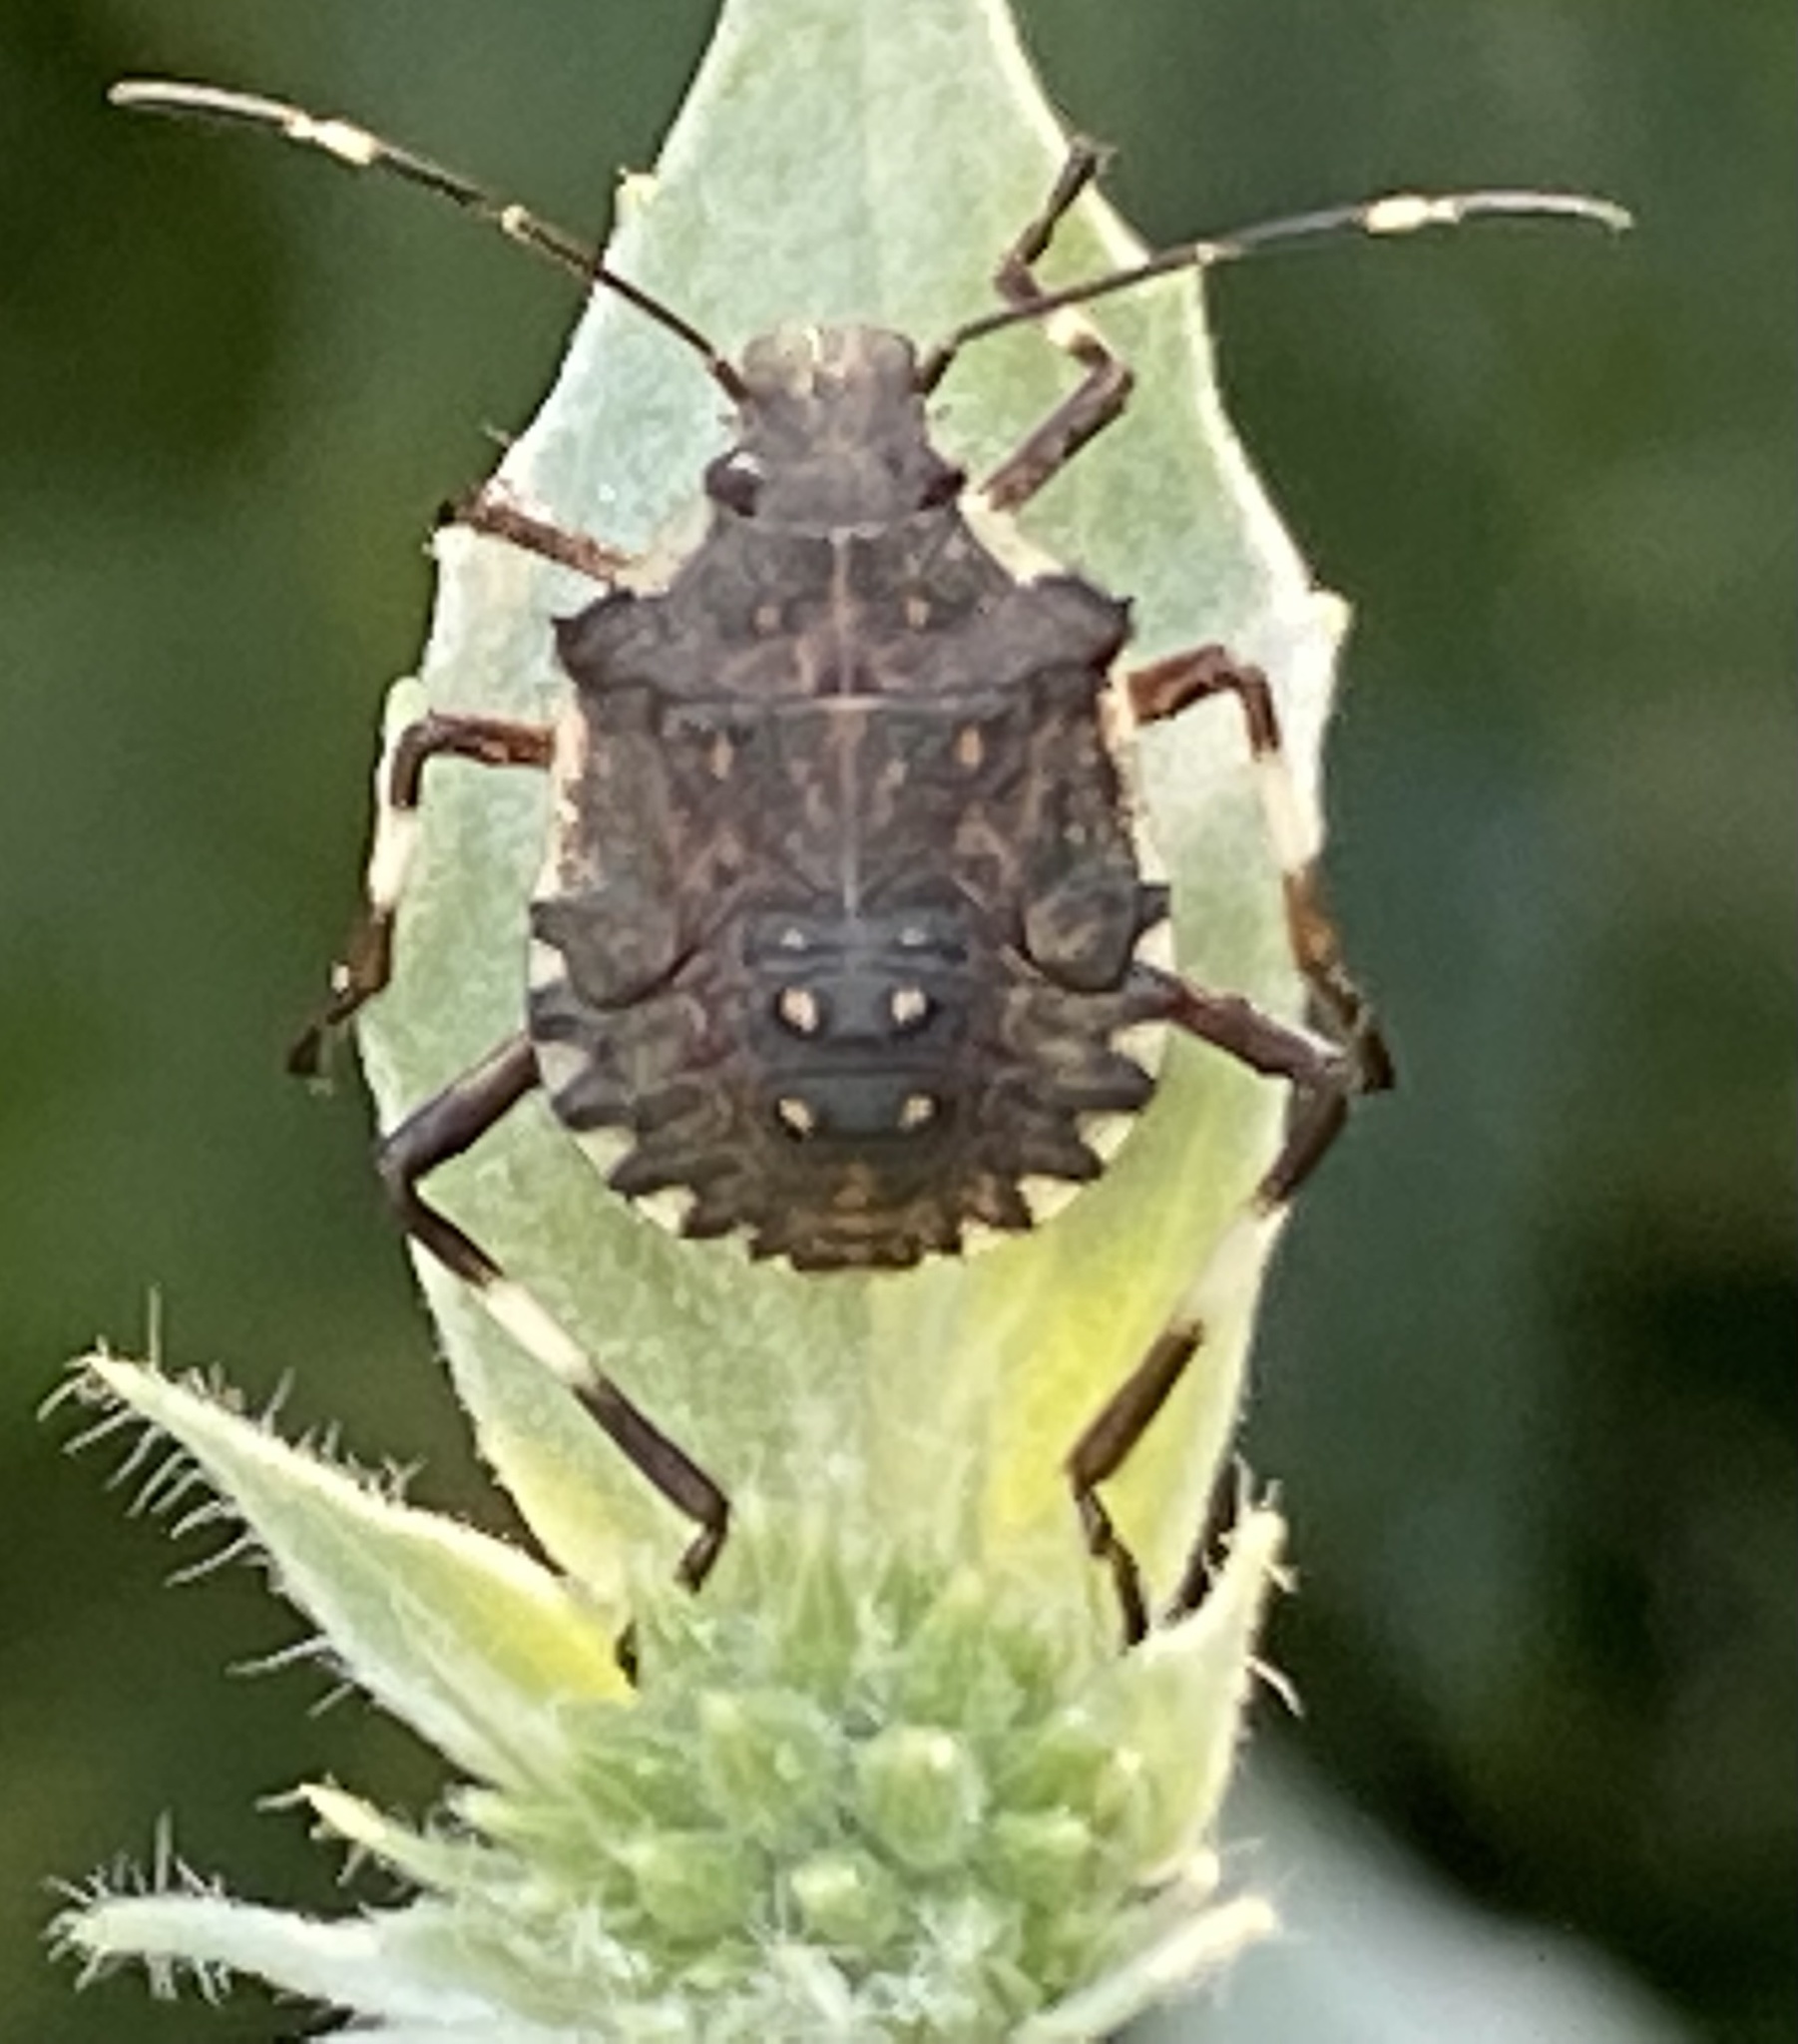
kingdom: Animalia
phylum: Arthropoda
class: Insecta
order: Hemiptera
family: Pentatomidae
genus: Halyomorpha
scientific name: Halyomorpha halys
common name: Brown marmorated stink bug
